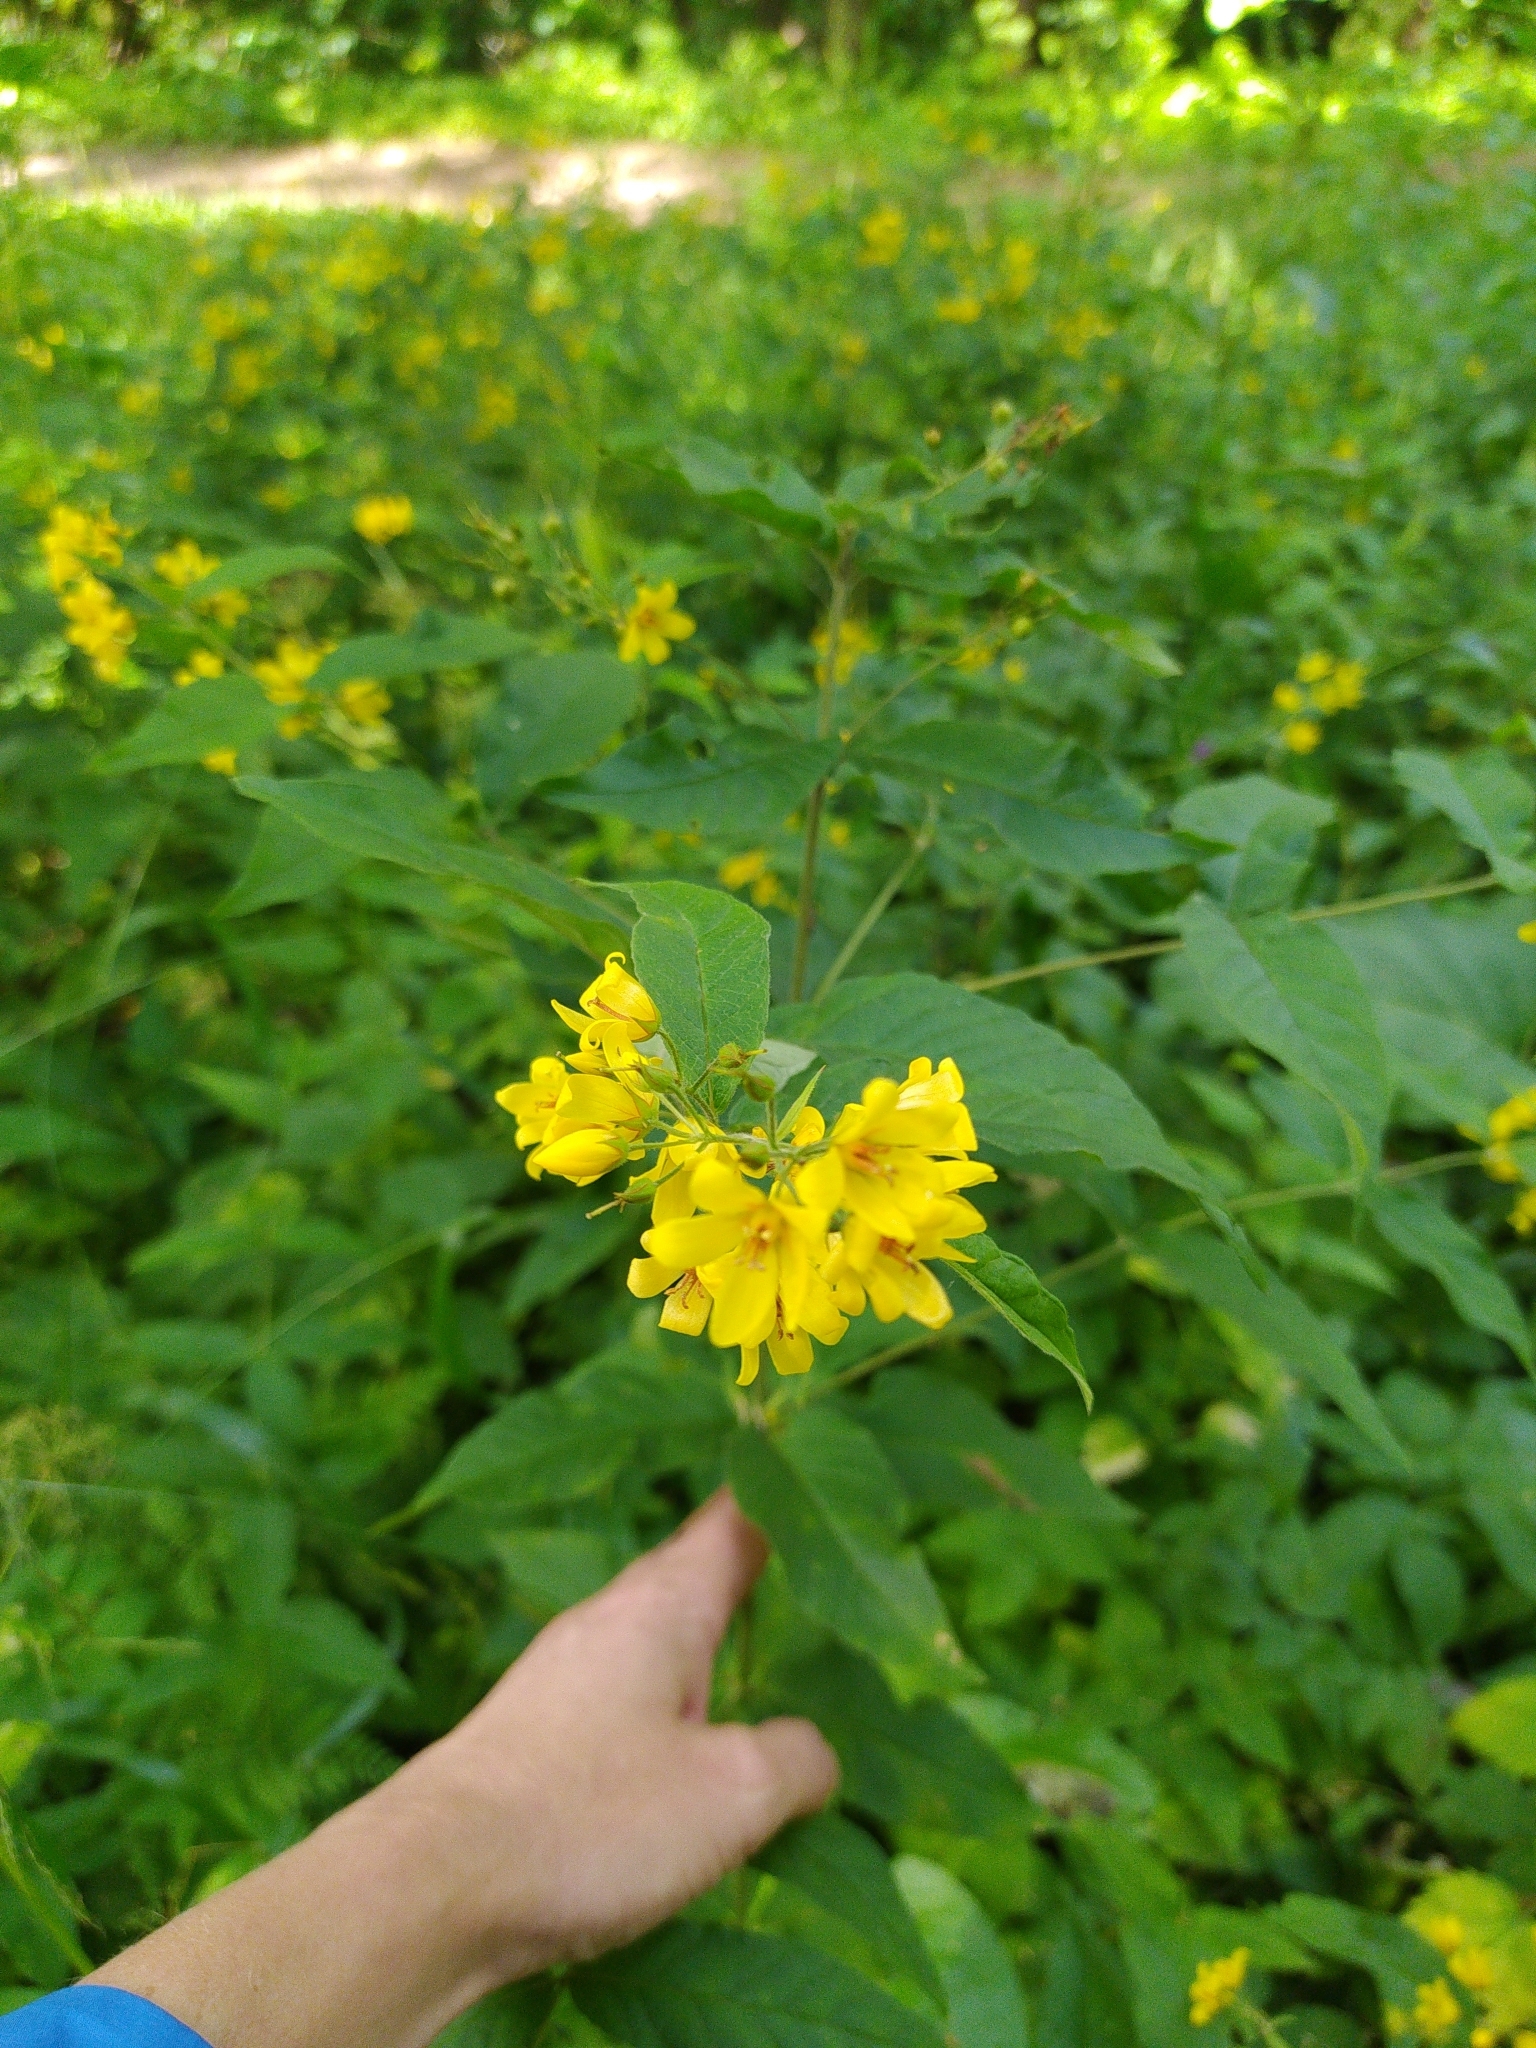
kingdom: Plantae
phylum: Tracheophyta
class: Magnoliopsida
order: Ericales
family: Primulaceae
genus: Lysimachia
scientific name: Lysimachia vulgaris
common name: Yellow loosestrife
